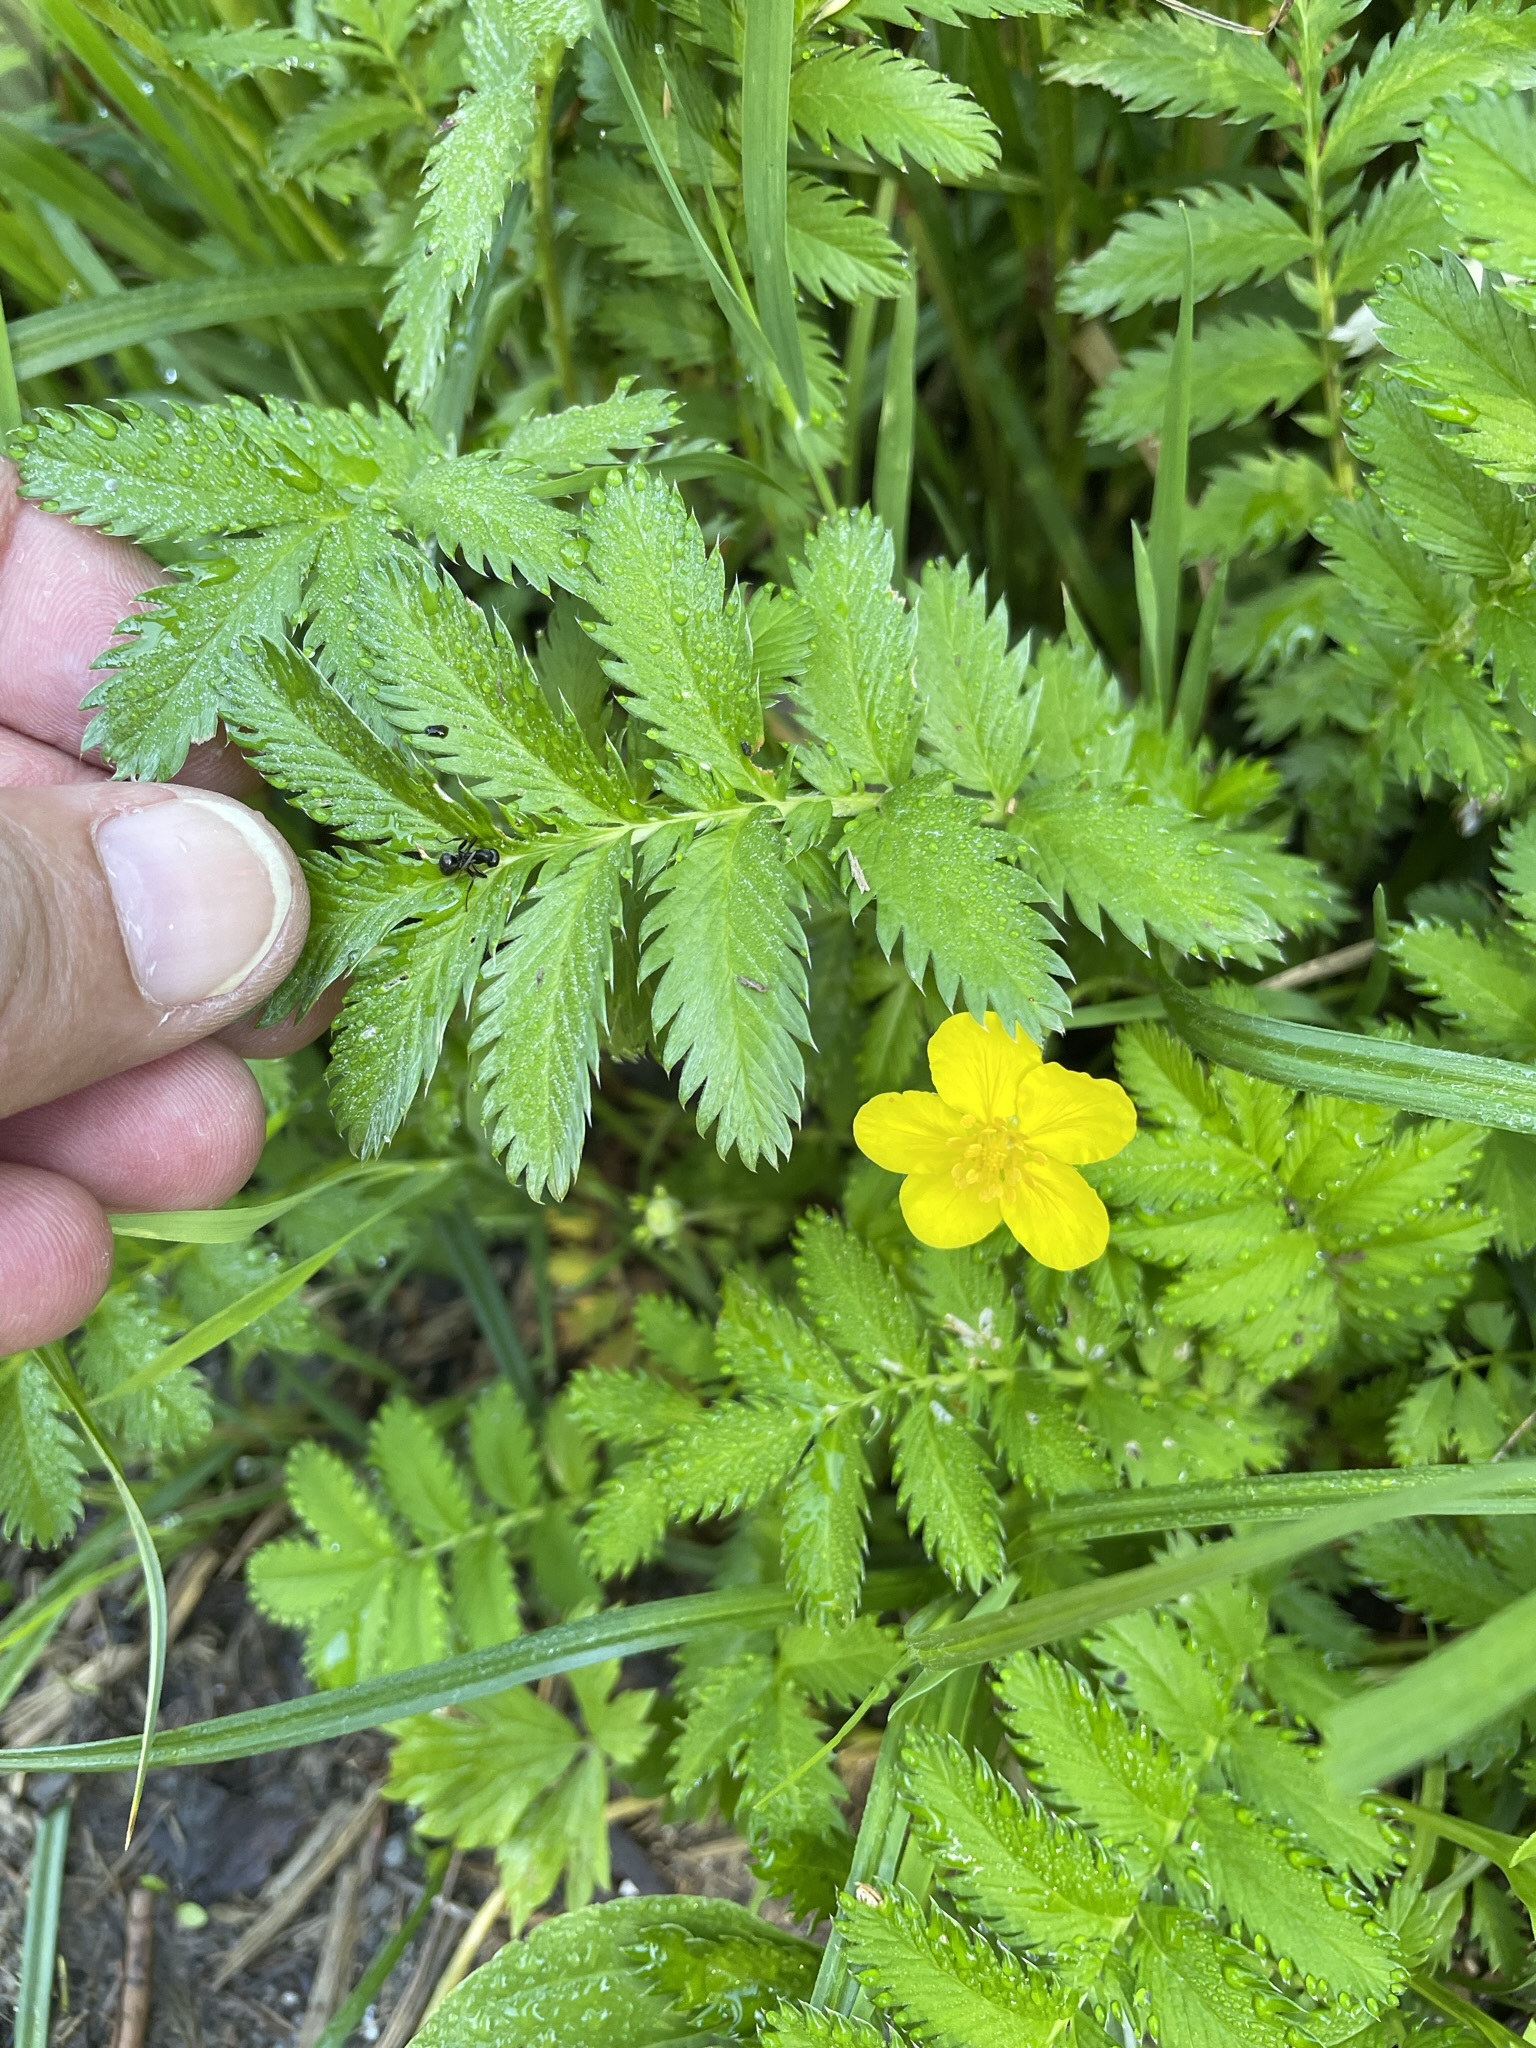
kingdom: Plantae
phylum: Tracheophyta
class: Magnoliopsida
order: Rosales
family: Rosaceae
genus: Argentina
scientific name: Argentina anserina
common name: Common silverweed
